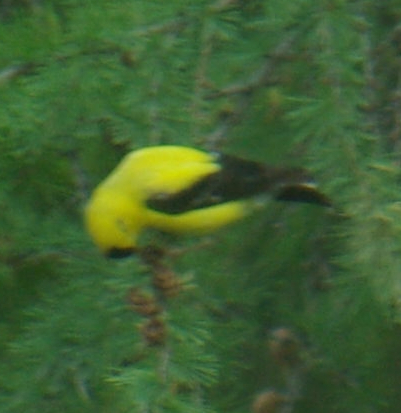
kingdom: Animalia
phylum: Chordata
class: Aves
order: Passeriformes
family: Fringillidae
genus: Spinus
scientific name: Spinus tristis
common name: American goldfinch
